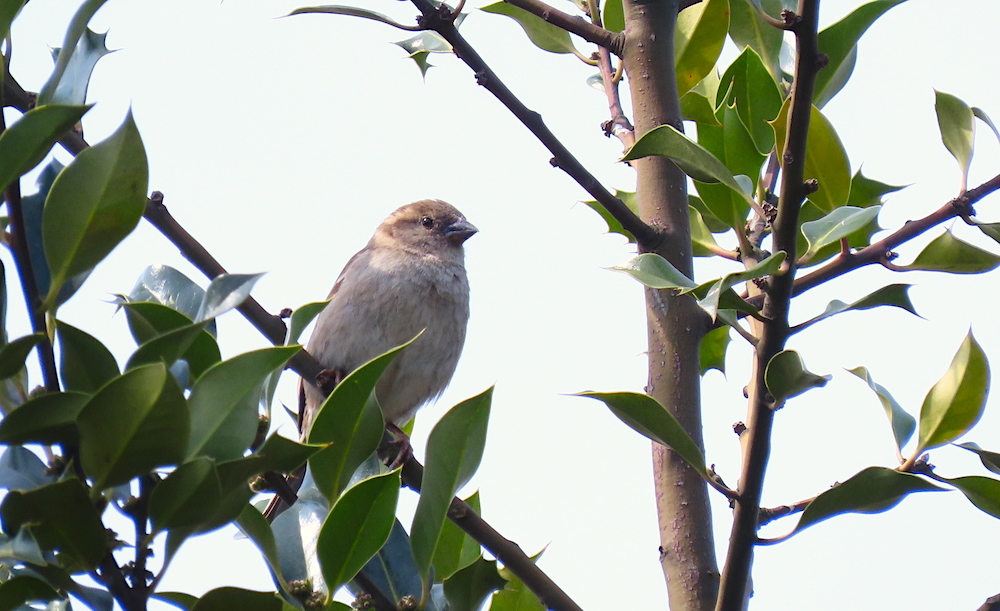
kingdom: Animalia
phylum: Chordata
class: Aves
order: Passeriformes
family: Passeridae
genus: Passer
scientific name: Passer domesticus
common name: House sparrow
